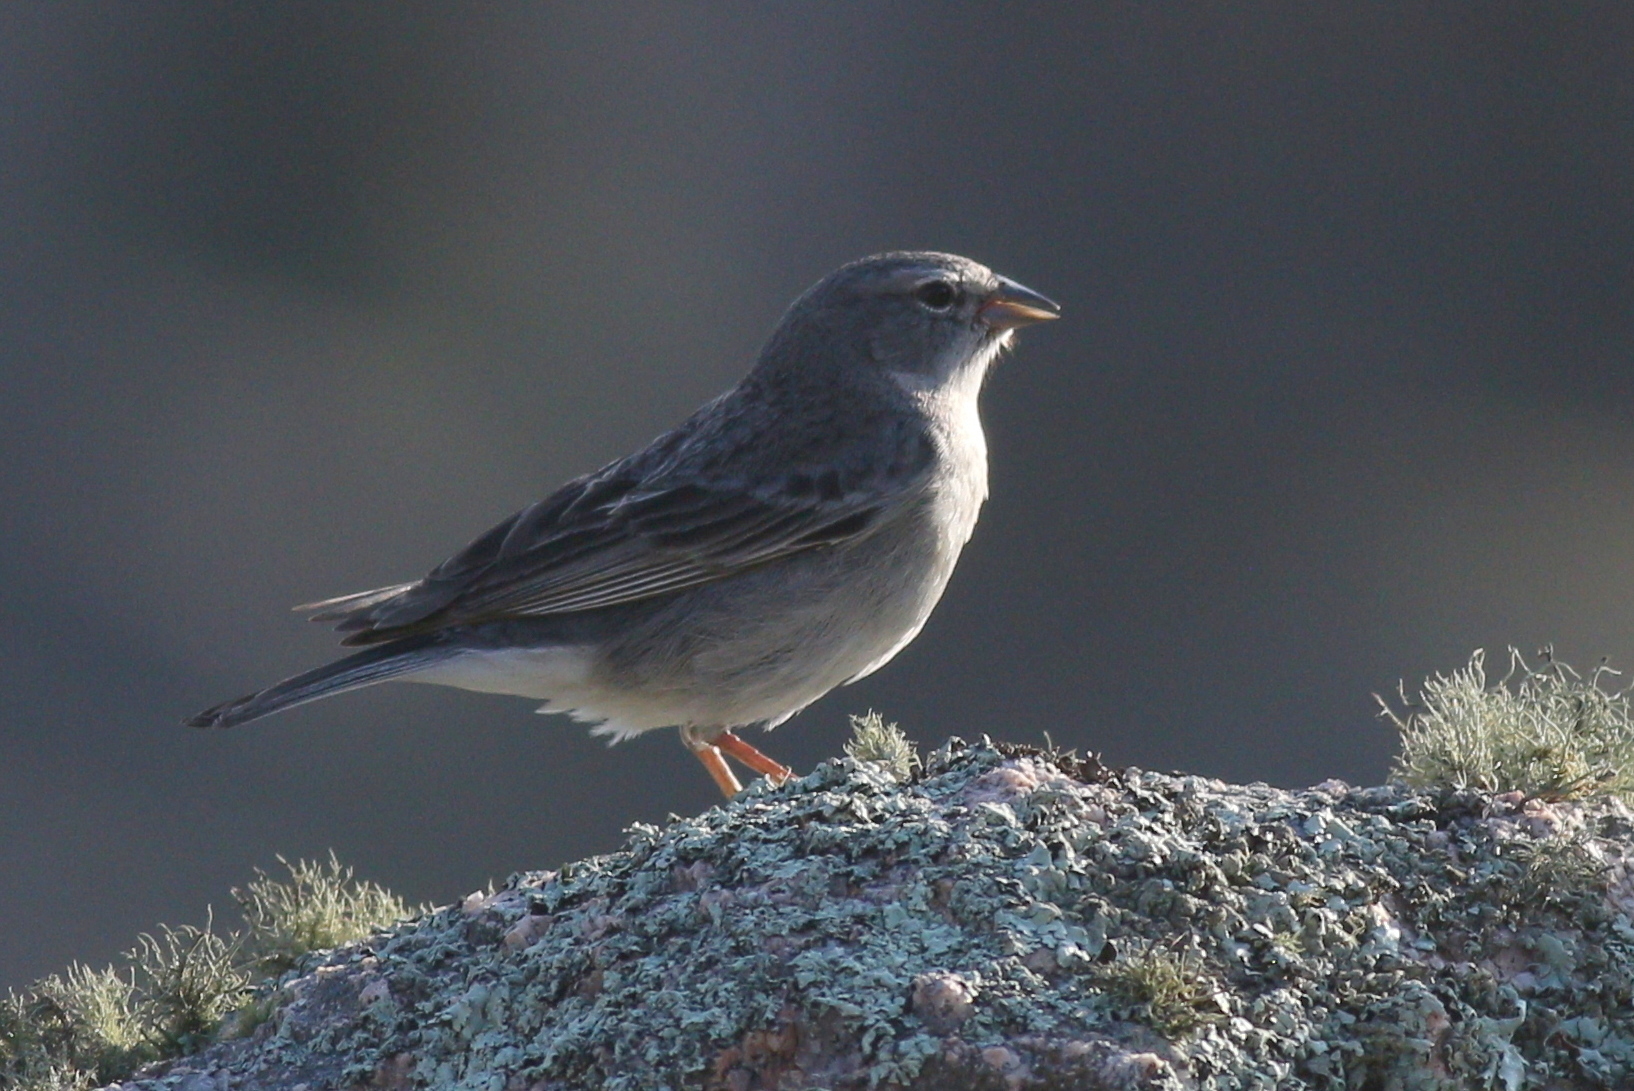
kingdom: Animalia
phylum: Chordata
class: Aves
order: Passeriformes
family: Thraupidae
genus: Geospizopsis
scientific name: Geospizopsis plebejus
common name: Ash-breasted sierra-finch
